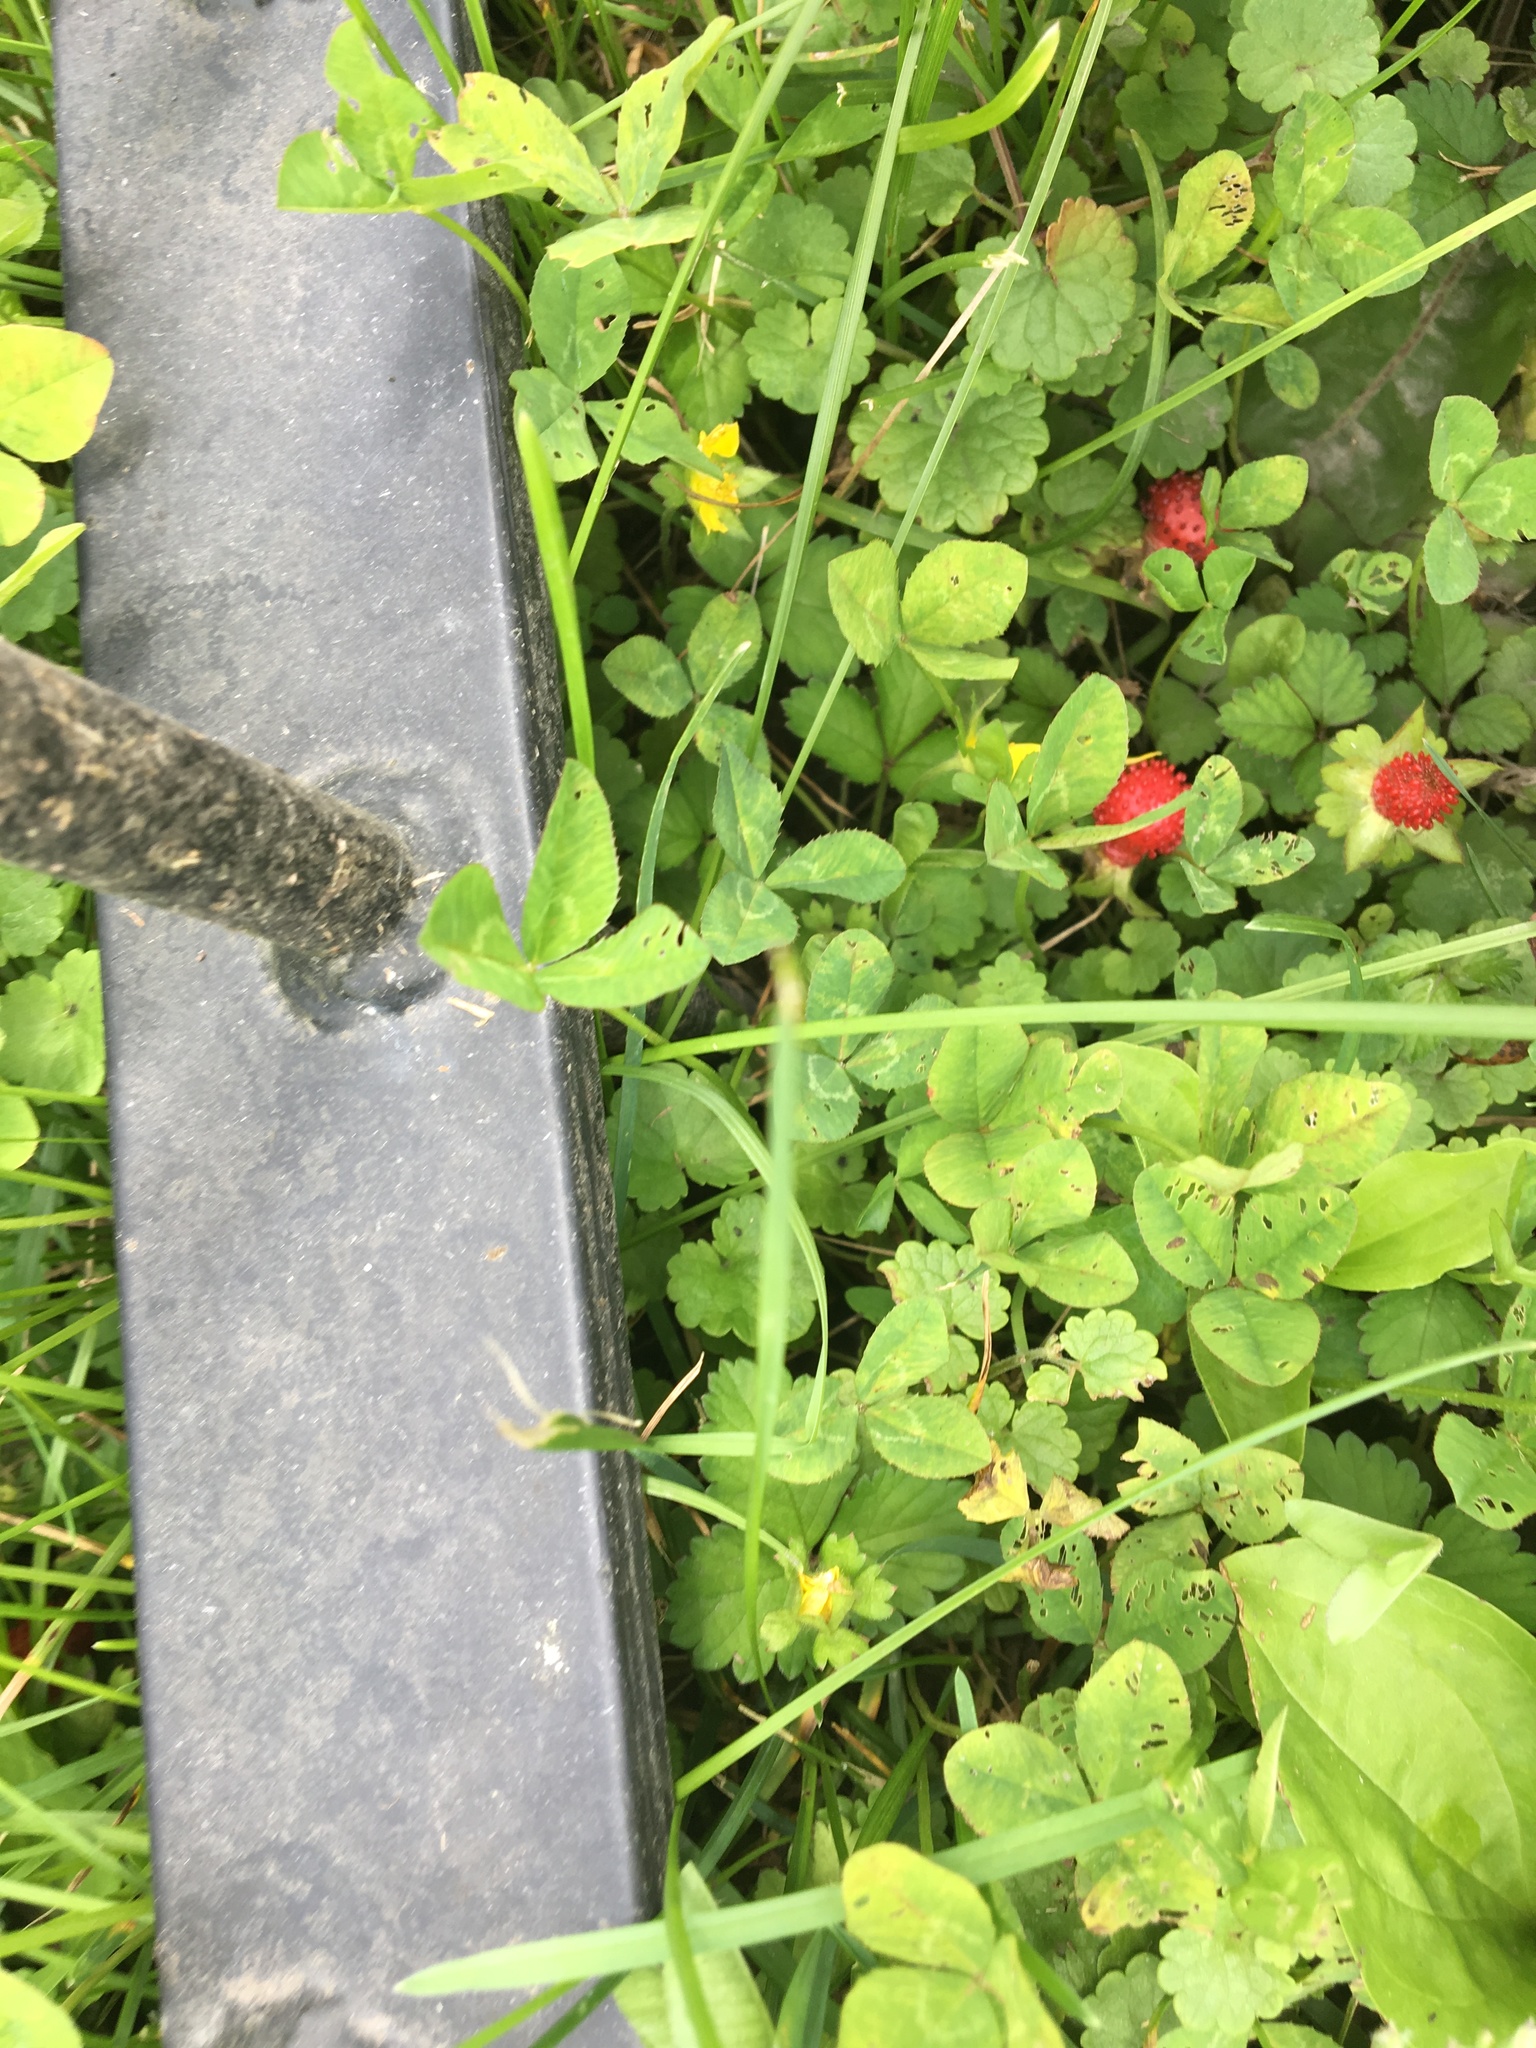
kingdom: Plantae
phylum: Tracheophyta
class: Magnoliopsida
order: Rosales
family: Rosaceae
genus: Potentilla
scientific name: Potentilla indica
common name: Yellow-flowered strawberry
